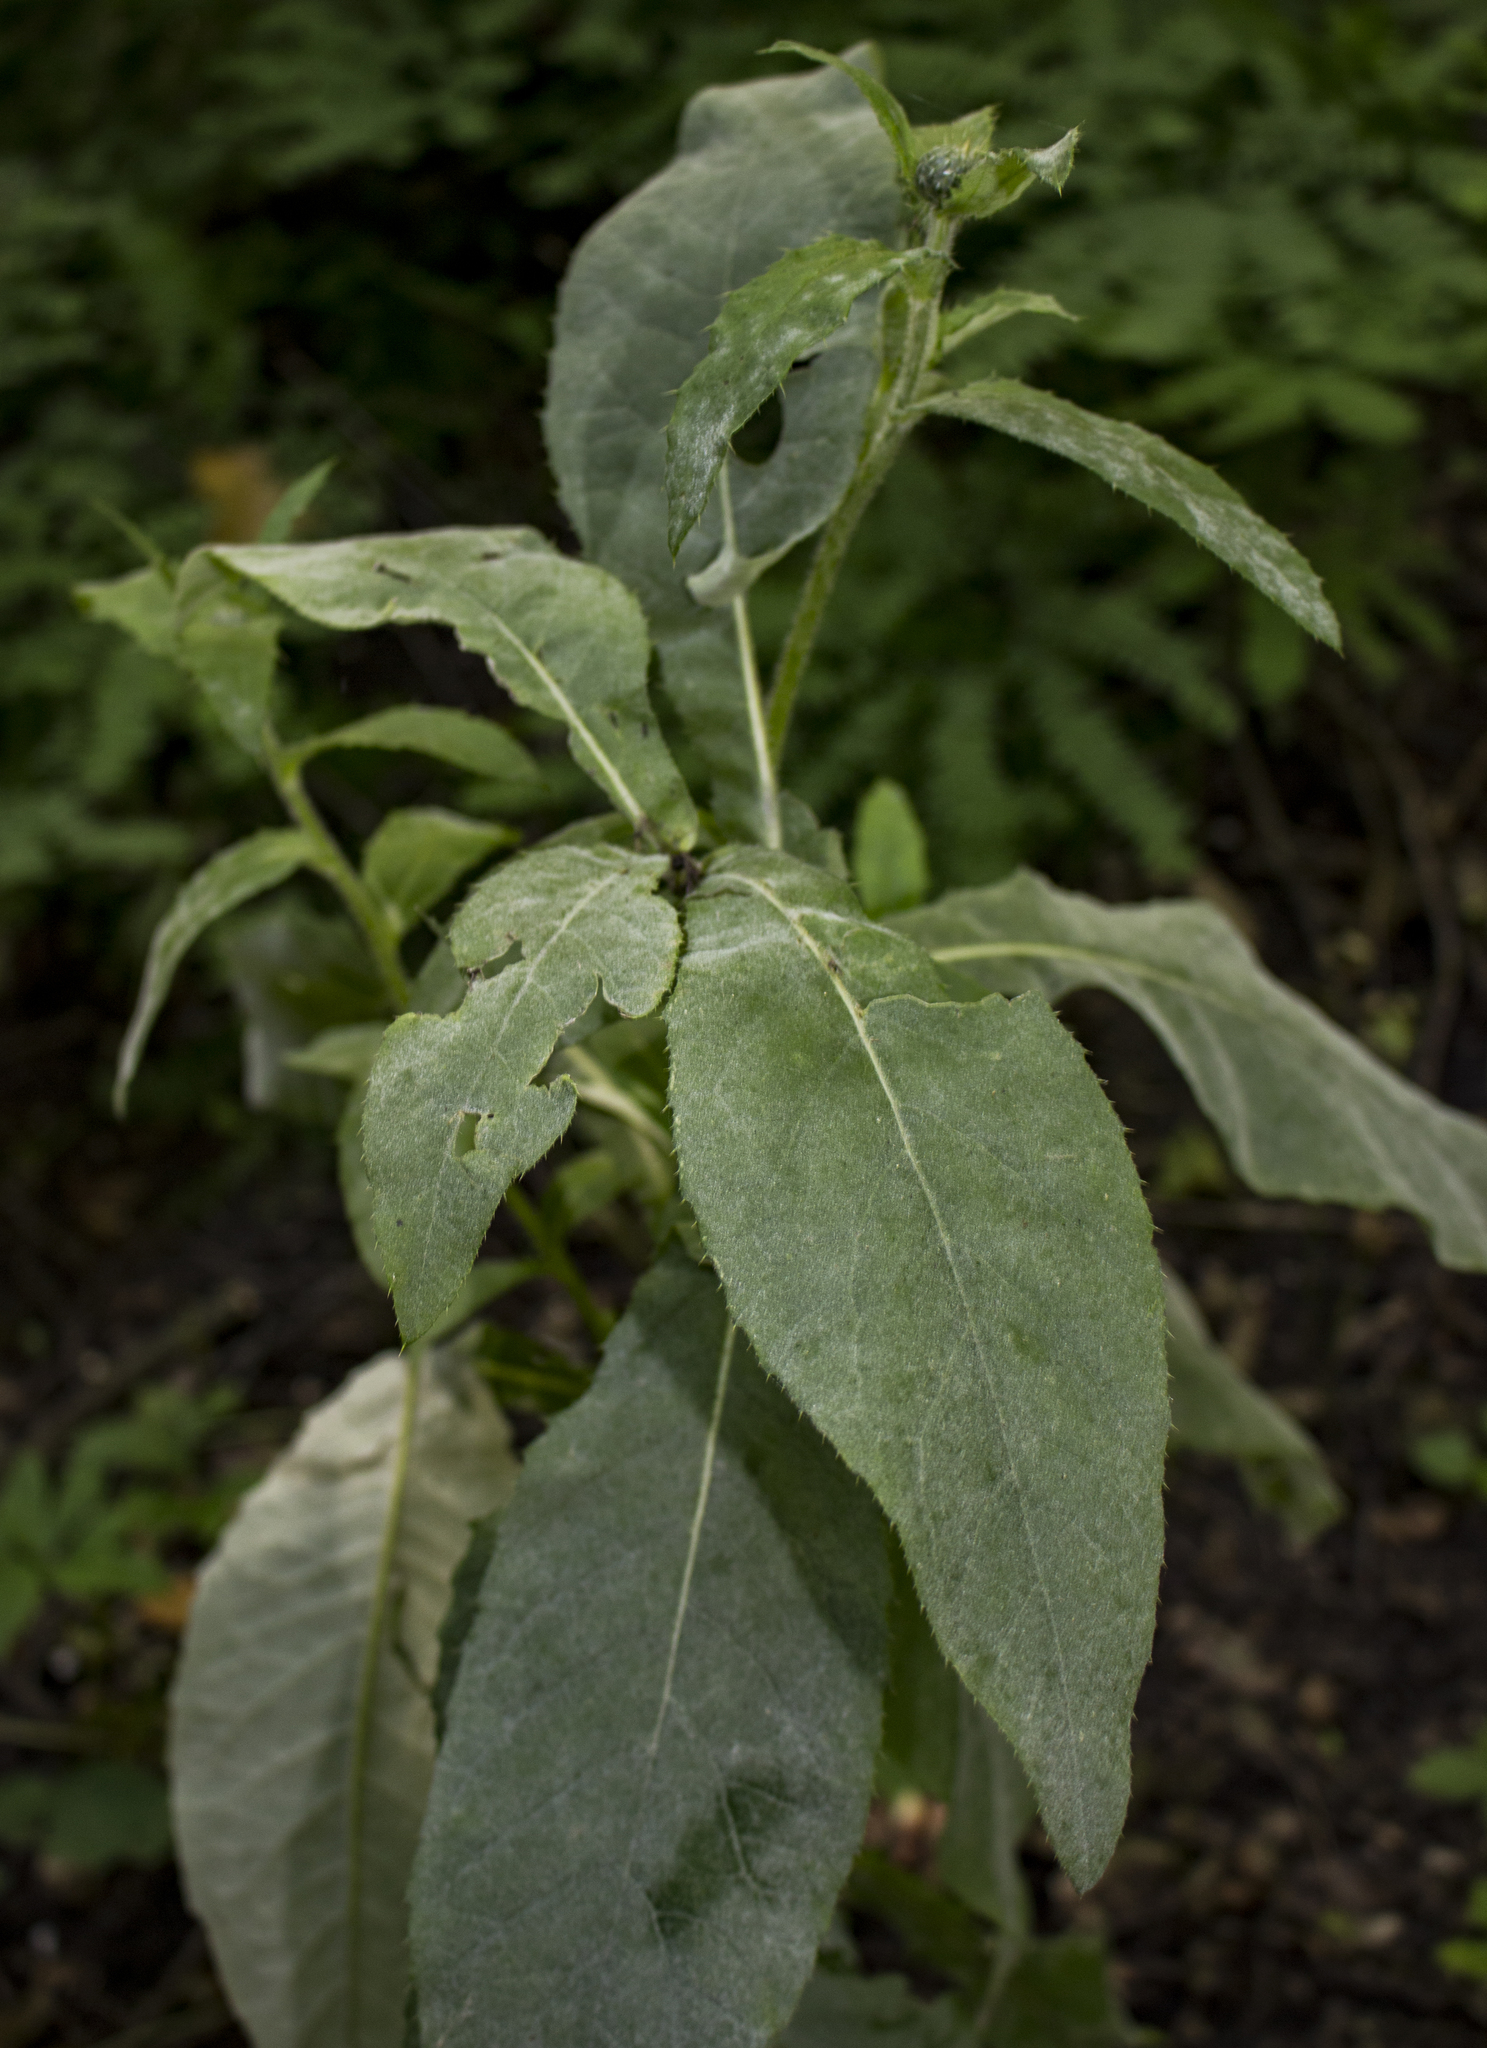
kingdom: Plantae
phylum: Tracheophyta
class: Magnoliopsida
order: Asterales
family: Asteraceae
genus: Cirsium
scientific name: Cirsium altissimum
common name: Roadside thistle
